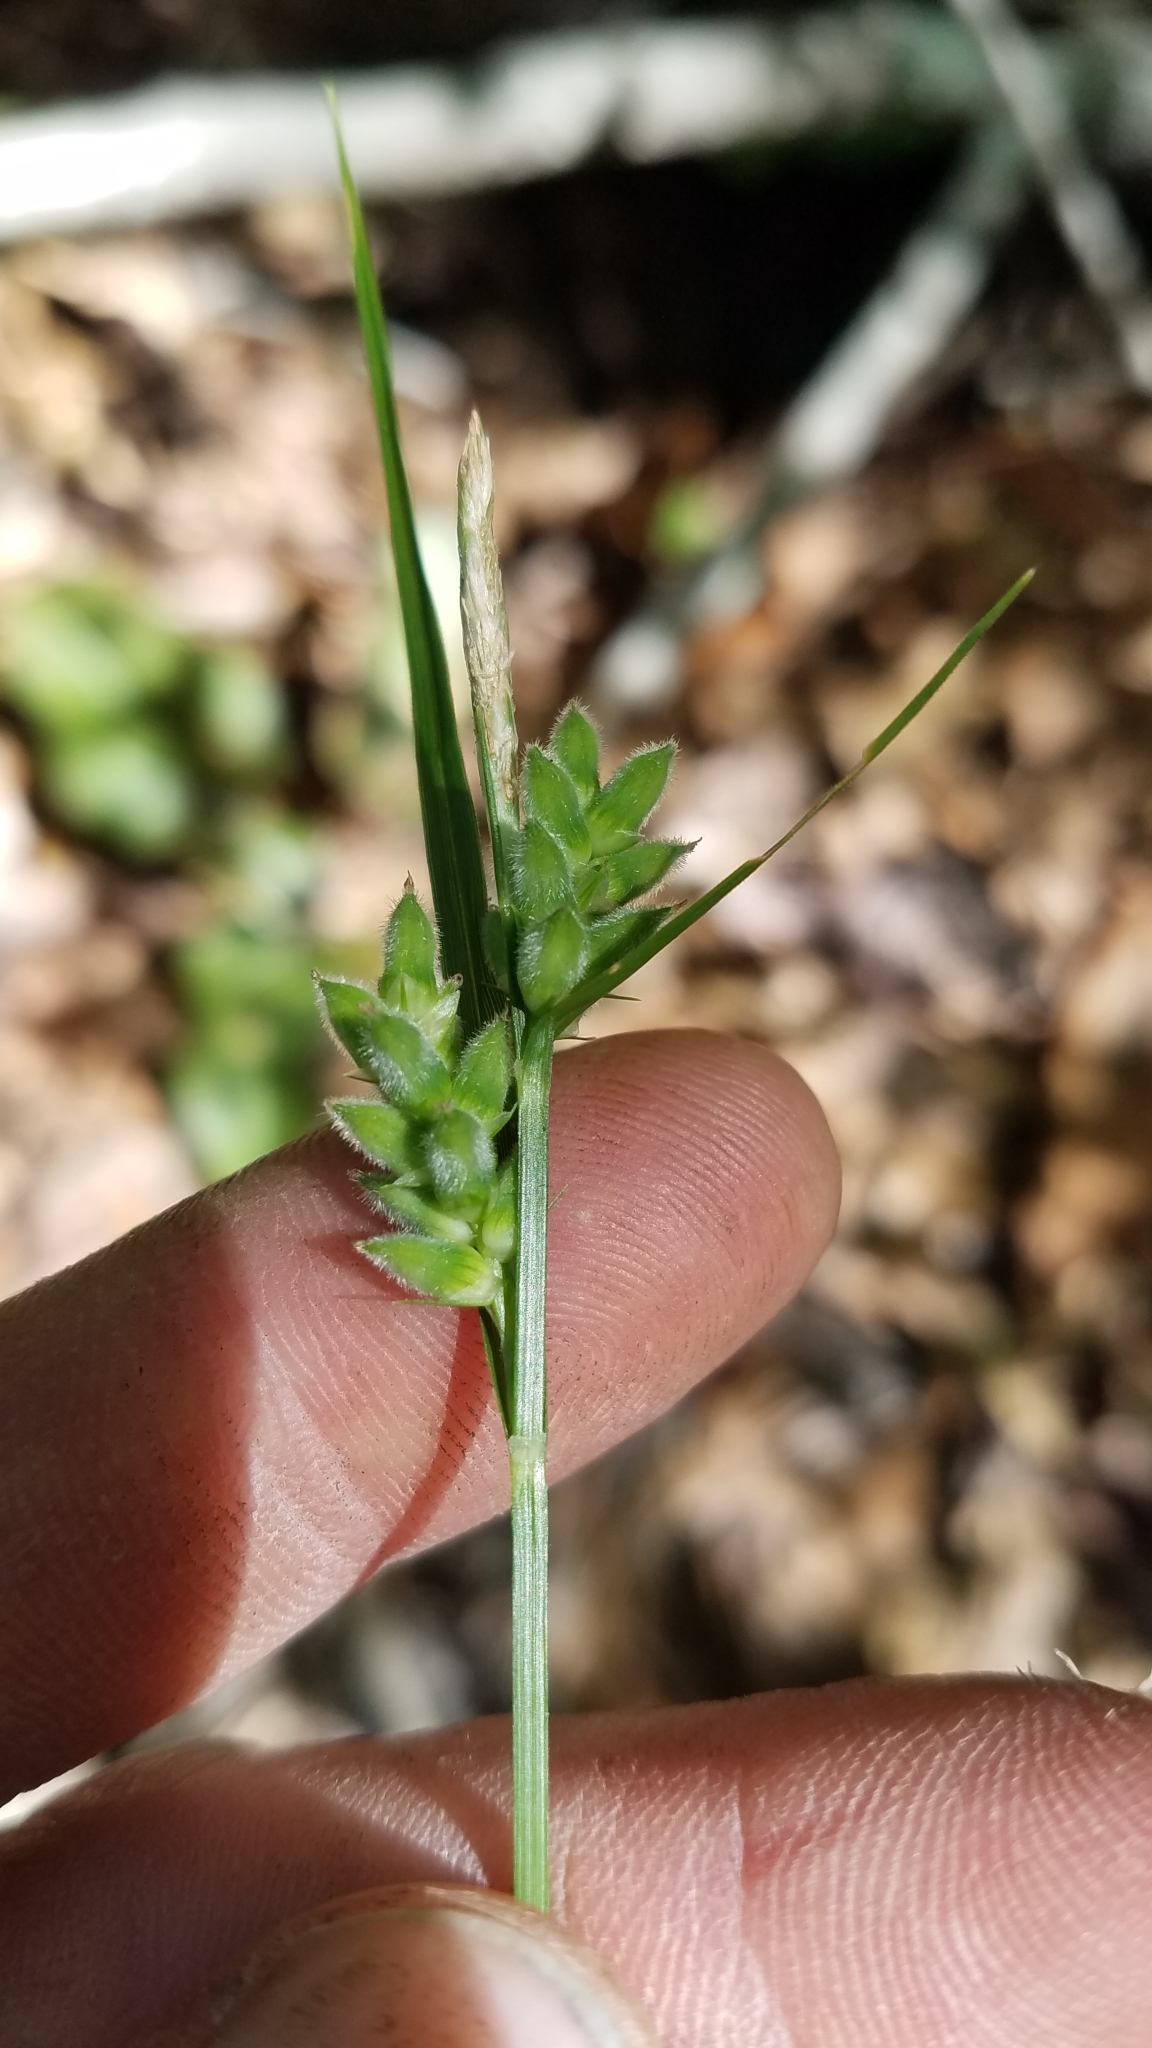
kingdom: Plantae
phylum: Tracheophyta
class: Liliopsida
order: Poales
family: Cyperaceae
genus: Carex
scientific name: Carex dasycarpa
